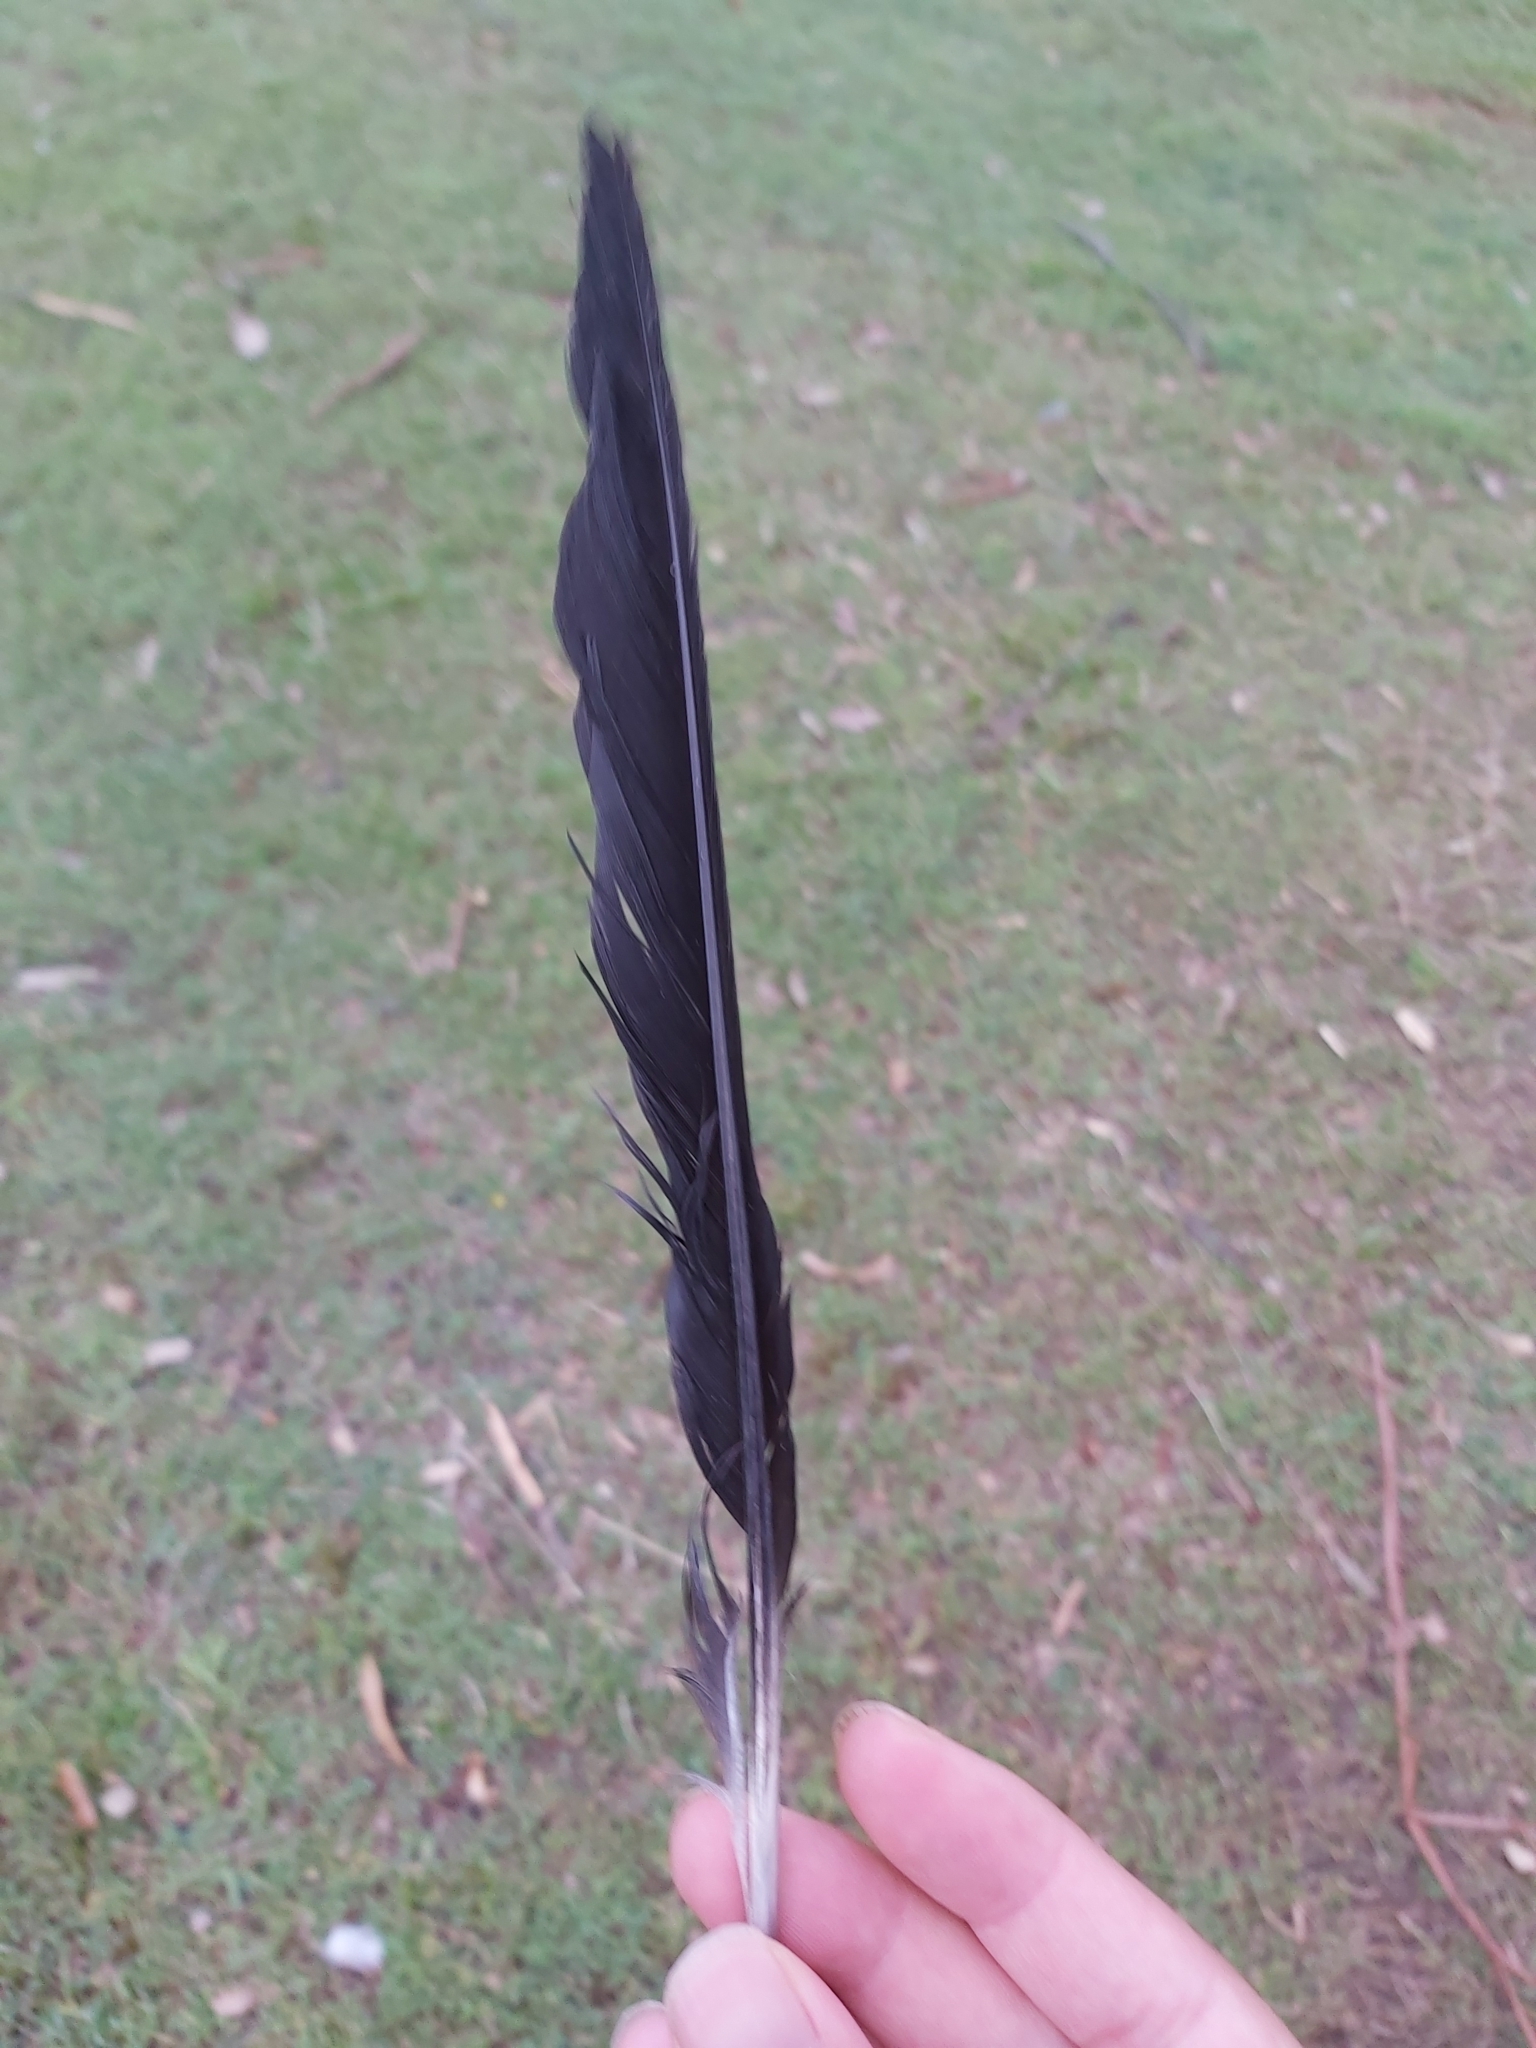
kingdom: Animalia
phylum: Chordata
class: Aves
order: Passeriformes
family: Cracticidae
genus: Gymnorhina
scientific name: Gymnorhina tibicen
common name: Australian magpie
